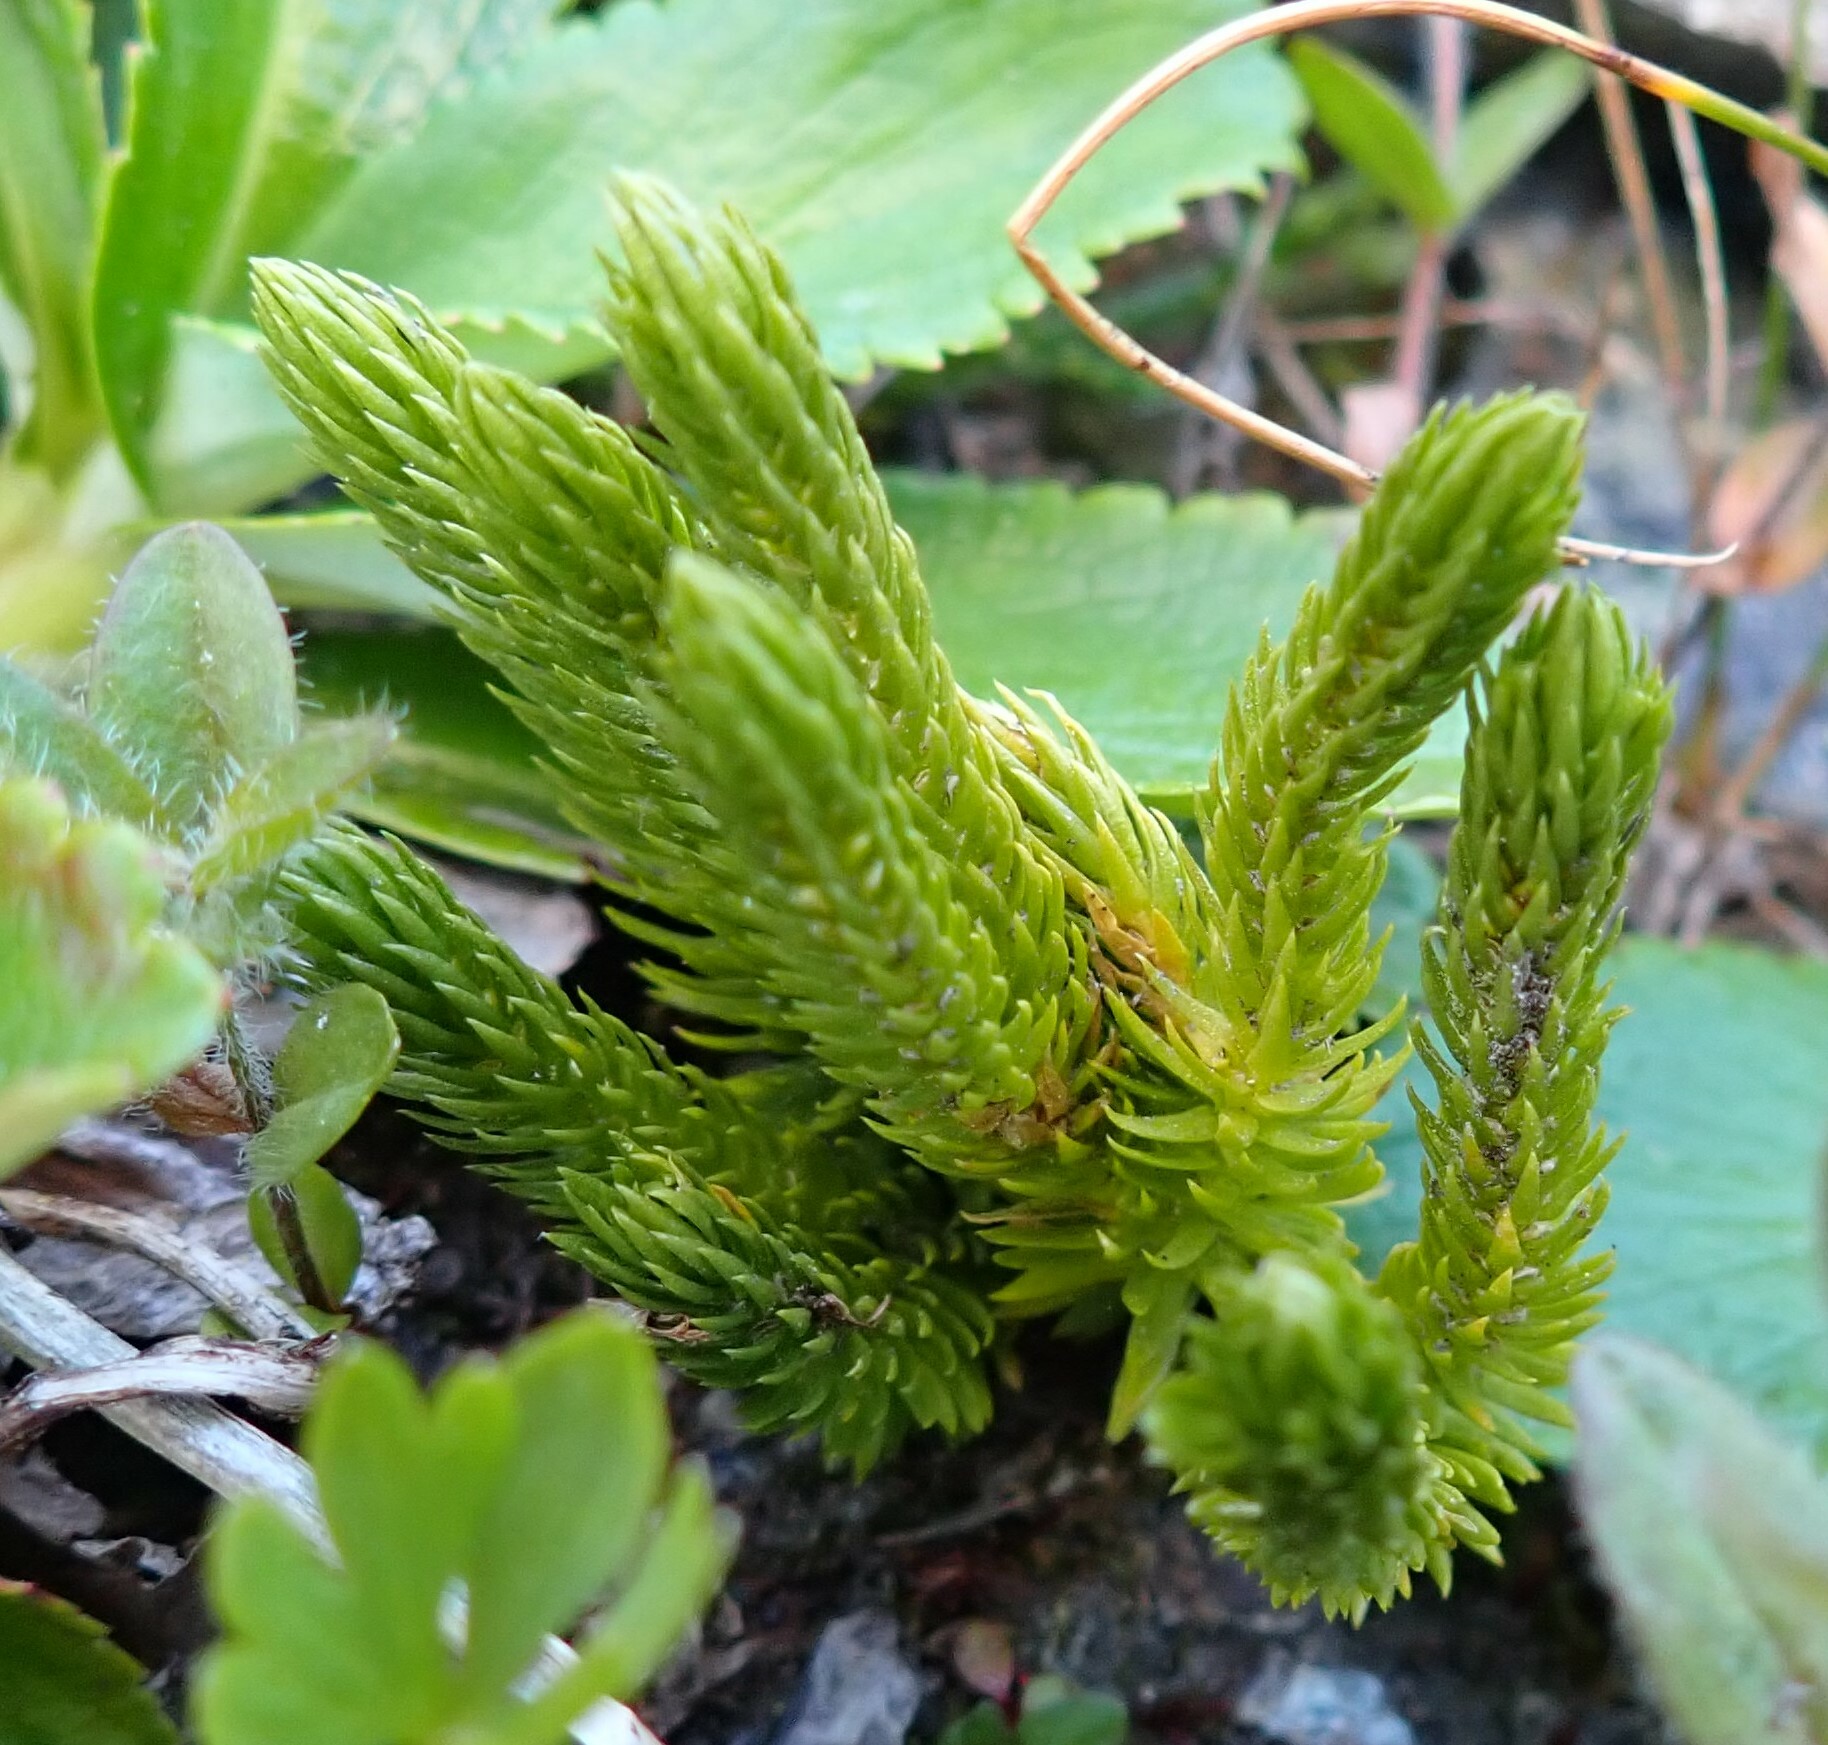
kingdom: Plantae
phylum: Tracheophyta
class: Lycopodiopsida
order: Lycopodiales
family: Lycopodiaceae
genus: Huperzia
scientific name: Huperzia continentalis
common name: Continental firmoss
